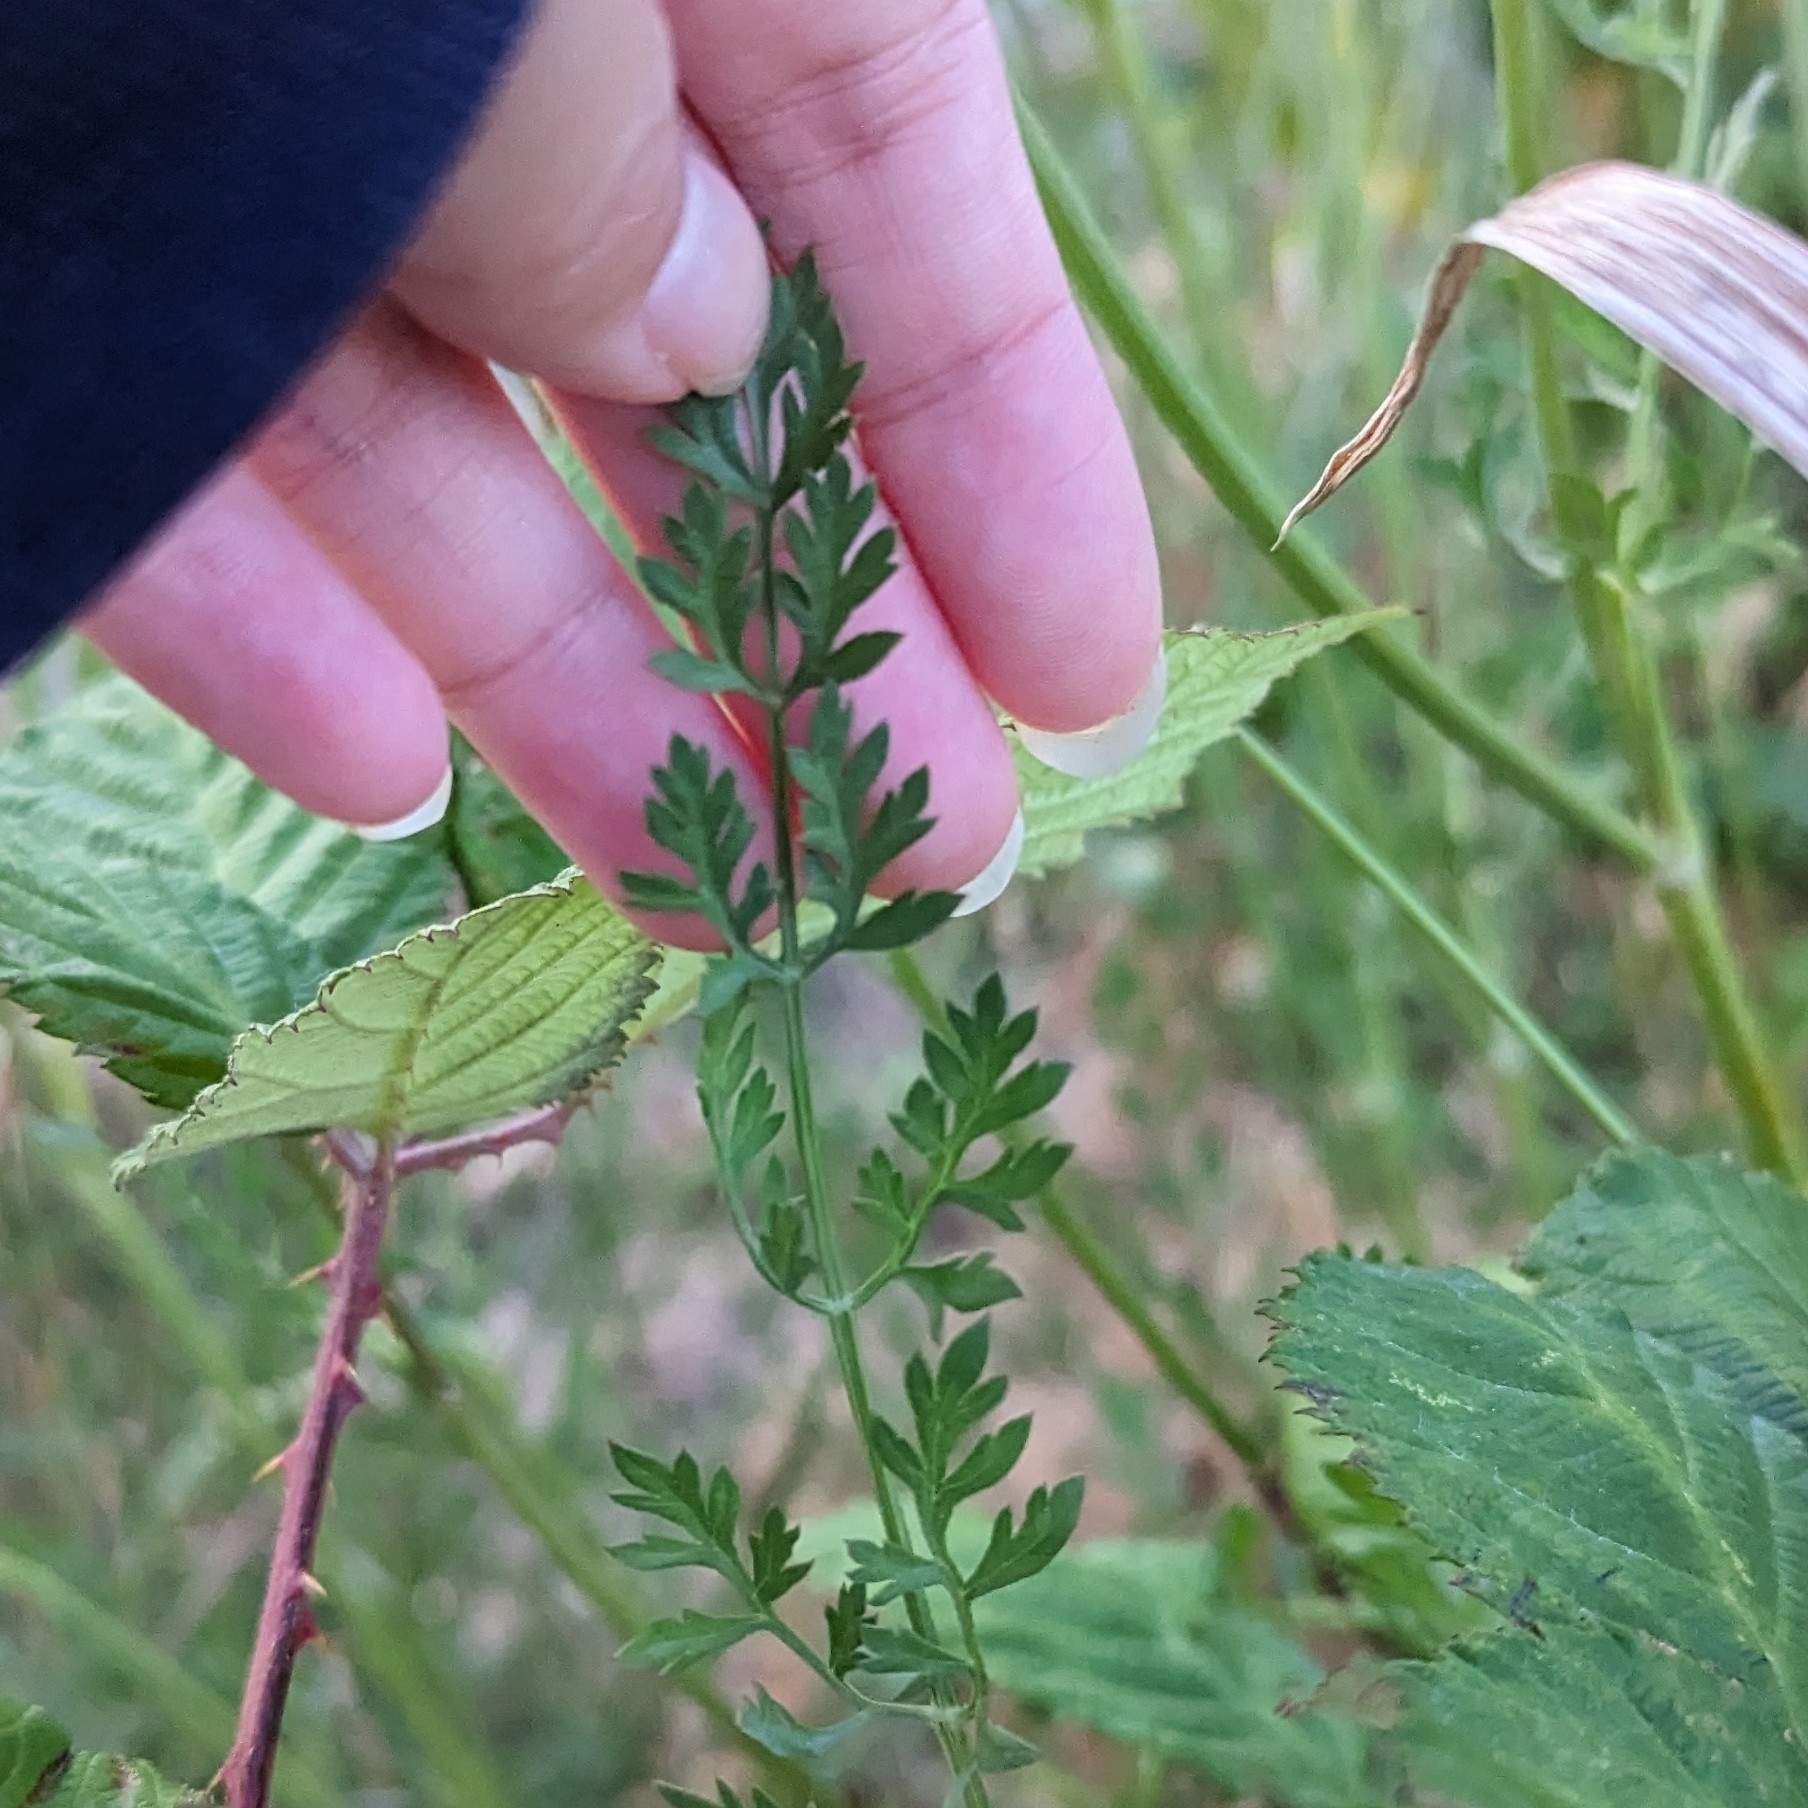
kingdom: Plantae
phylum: Tracheophyta
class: Magnoliopsida
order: Apiales
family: Apiaceae
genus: Daucus
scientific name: Daucus carota
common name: Wild carrot
